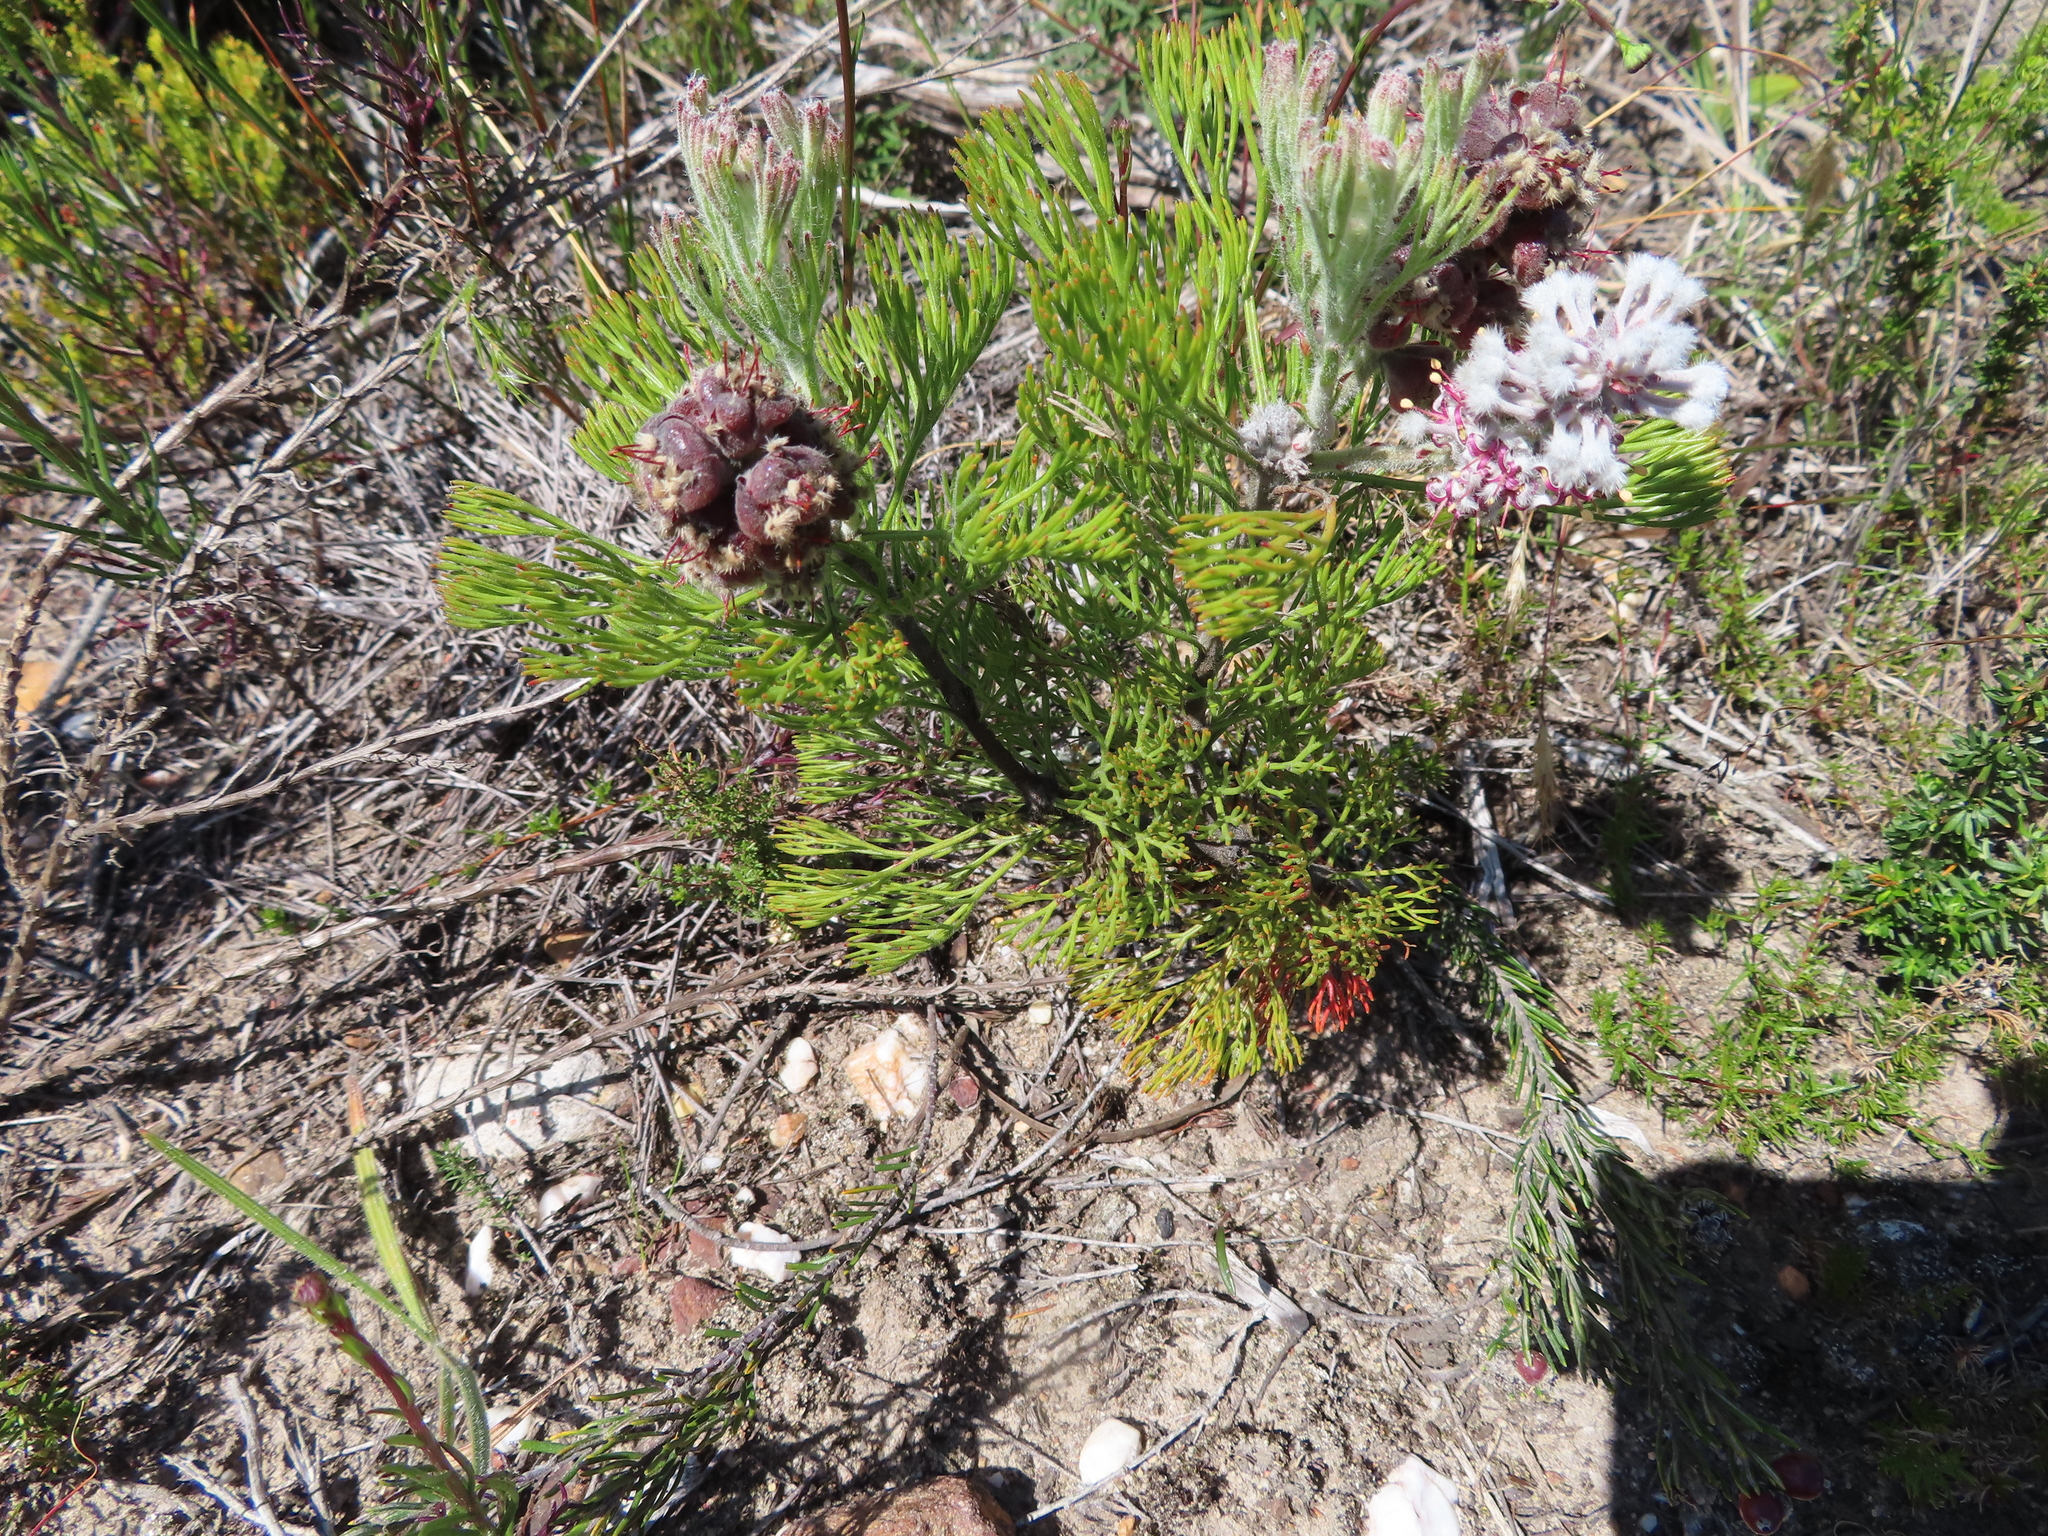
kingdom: Plantae
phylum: Tracheophyta
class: Magnoliopsida
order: Proteales
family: Proteaceae
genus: Paranomus
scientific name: Paranomus abrotanifolius
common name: Bredasdorp sceptre
